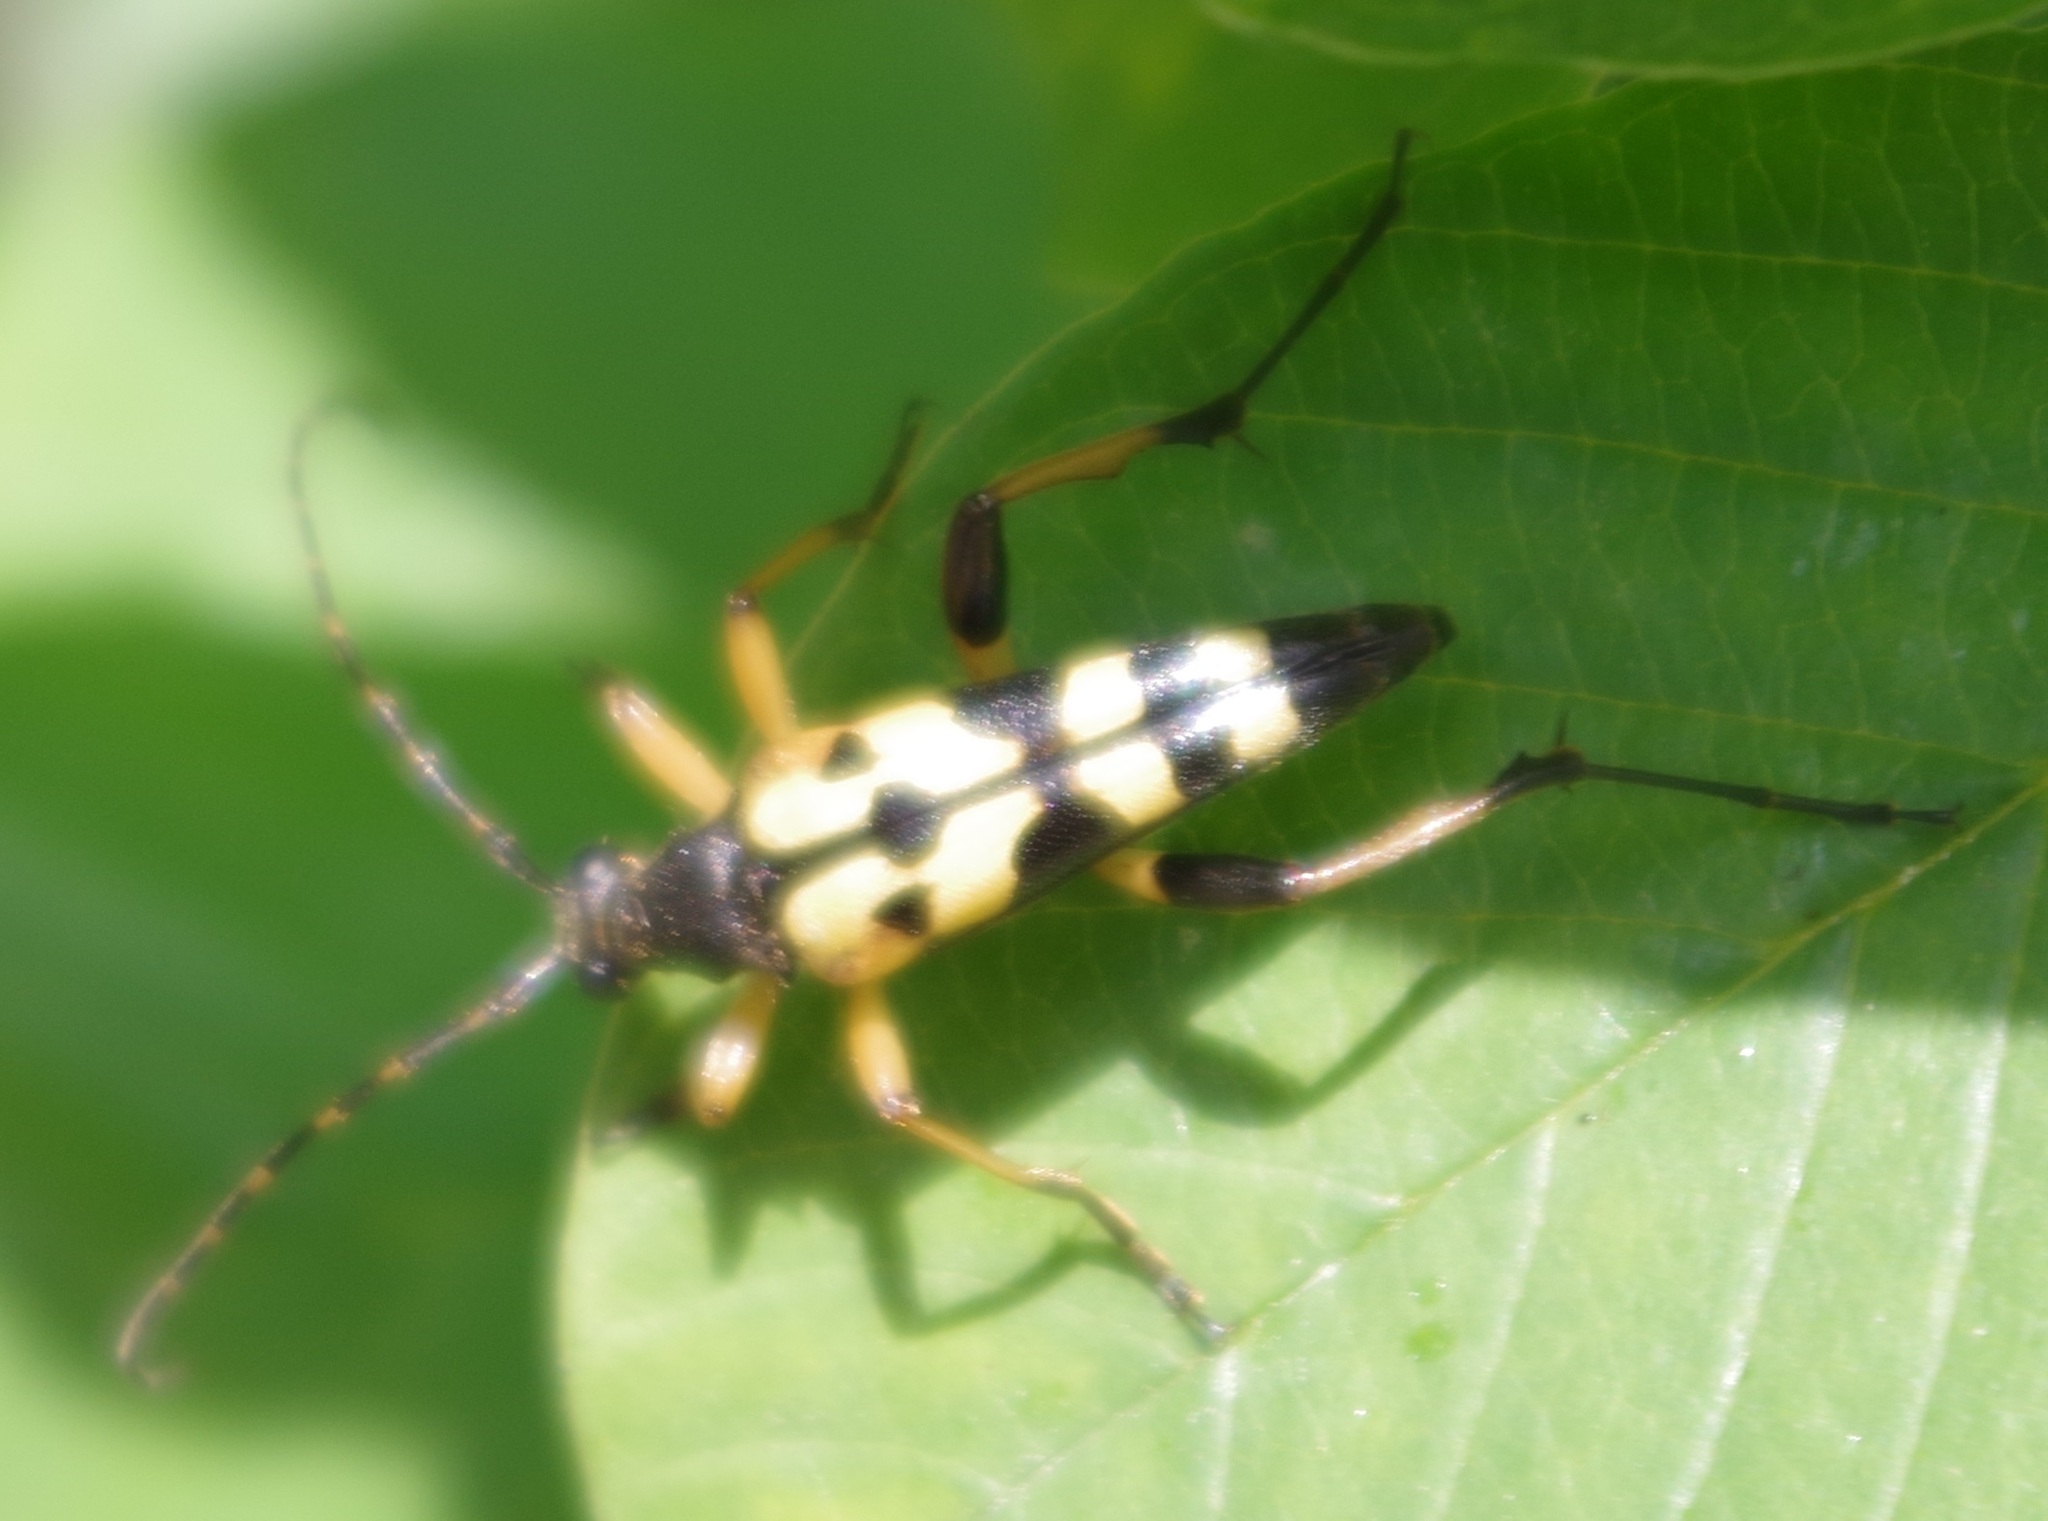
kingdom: Animalia
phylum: Arthropoda
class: Insecta
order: Coleoptera
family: Cerambycidae
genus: Rutpela
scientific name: Rutpela maculata
